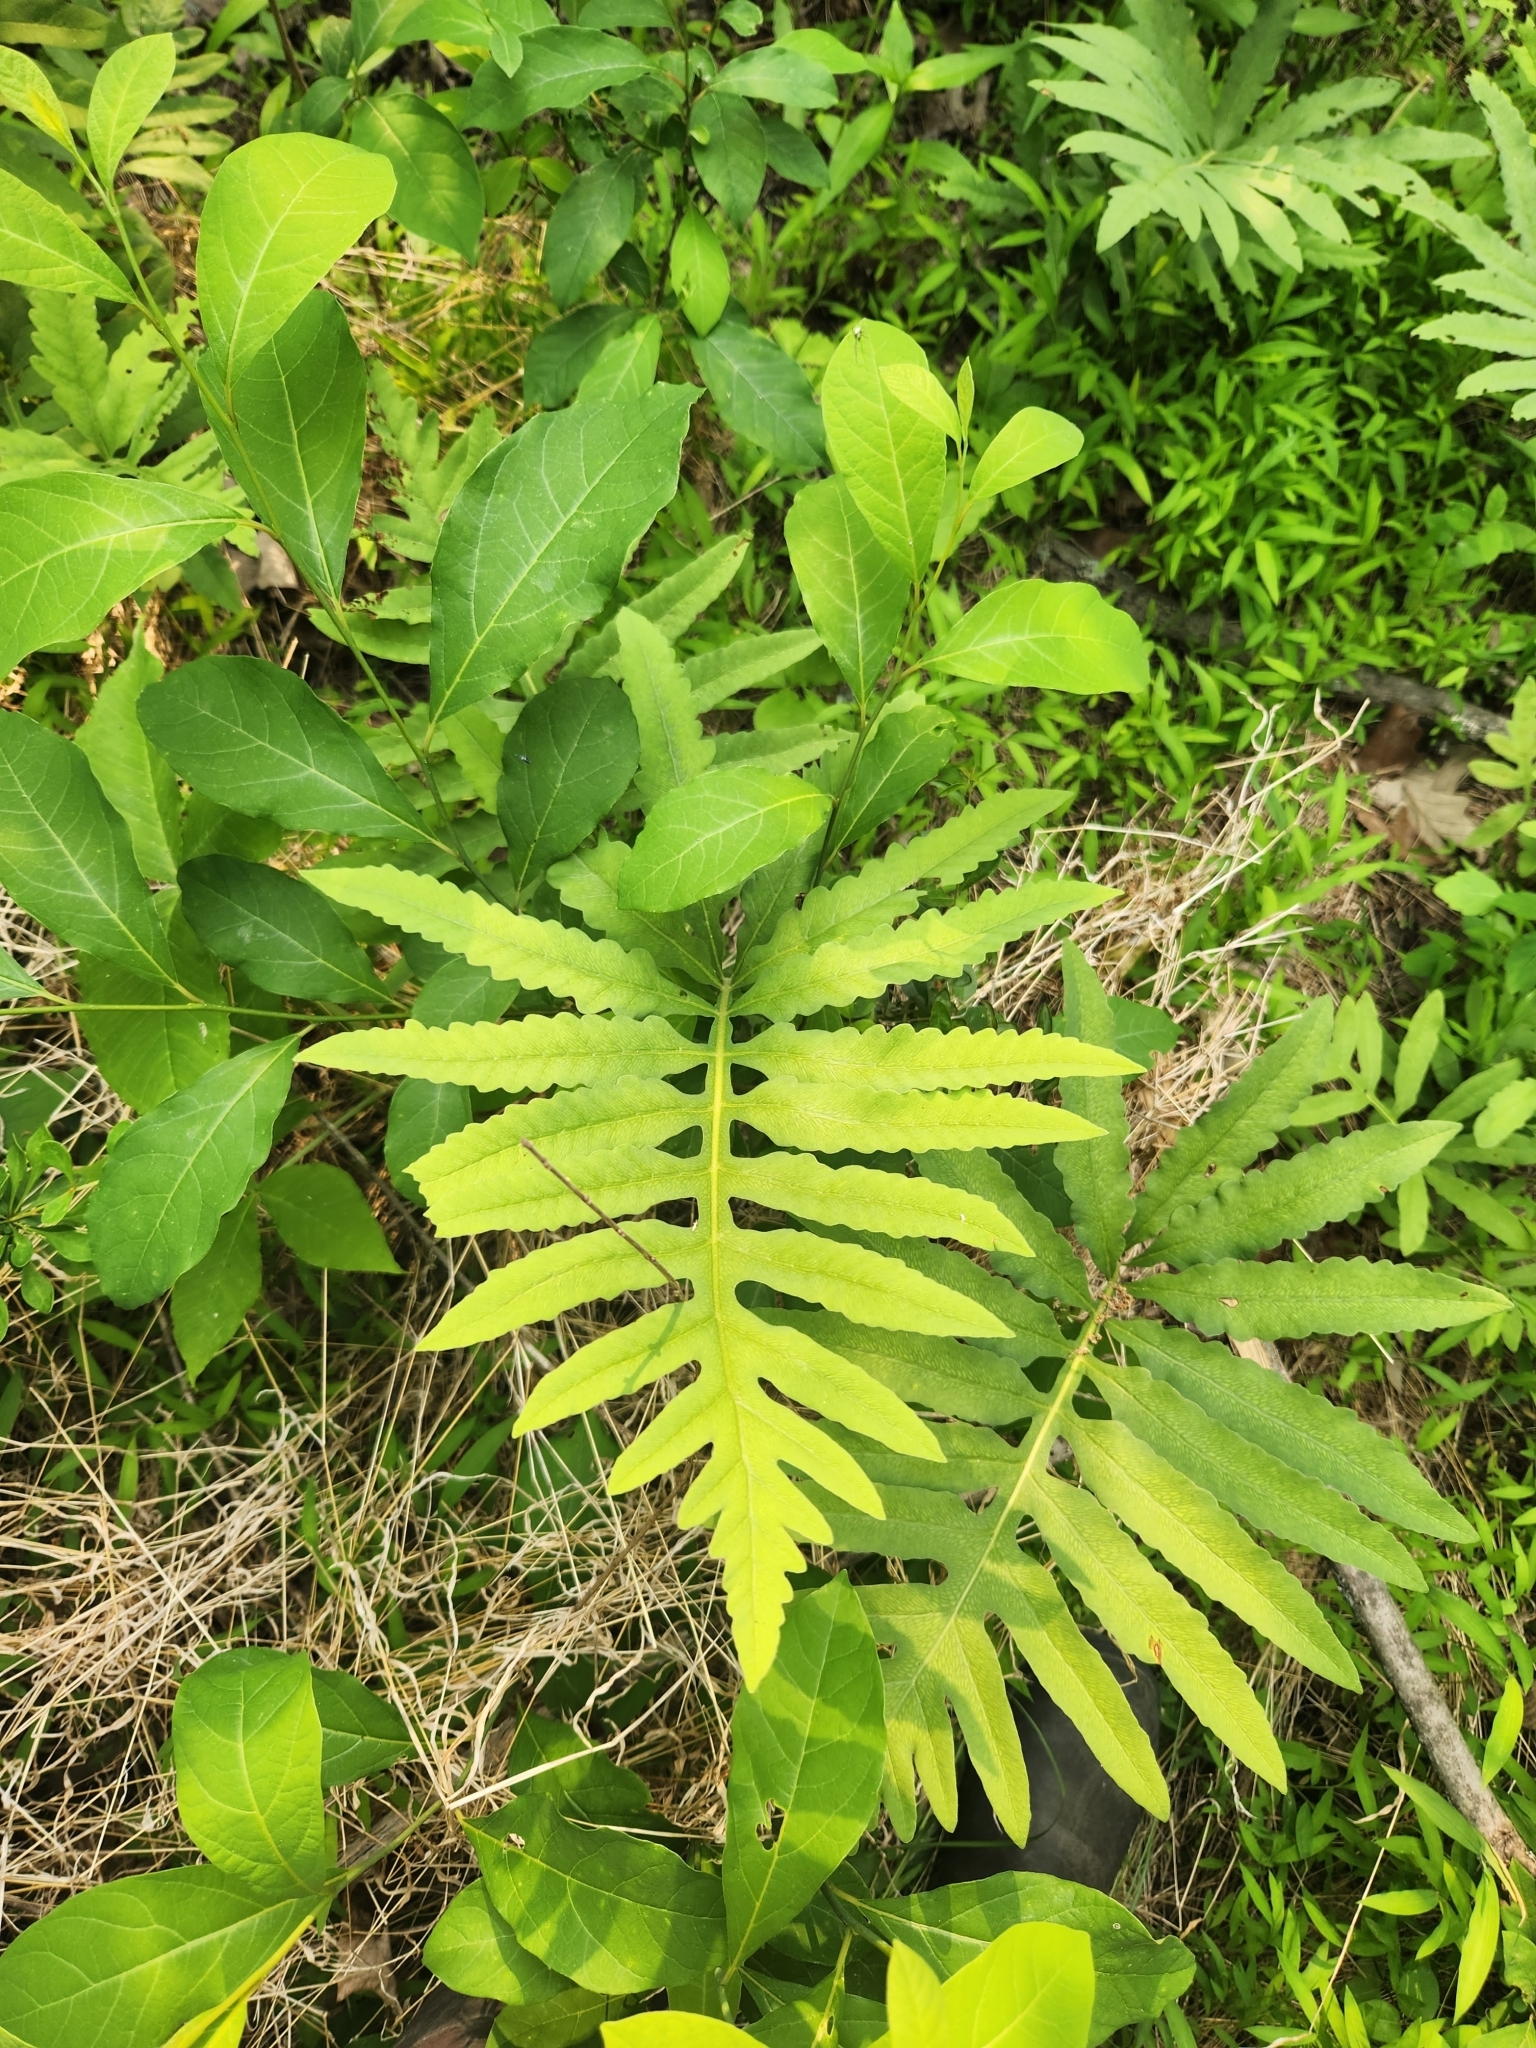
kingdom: Plantae
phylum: Tracheophyta
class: Polypodiopsida
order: Polypodiales
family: Onocleaceae
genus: Onoclea
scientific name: Onoclea sensibilis
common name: Sensitive fern
